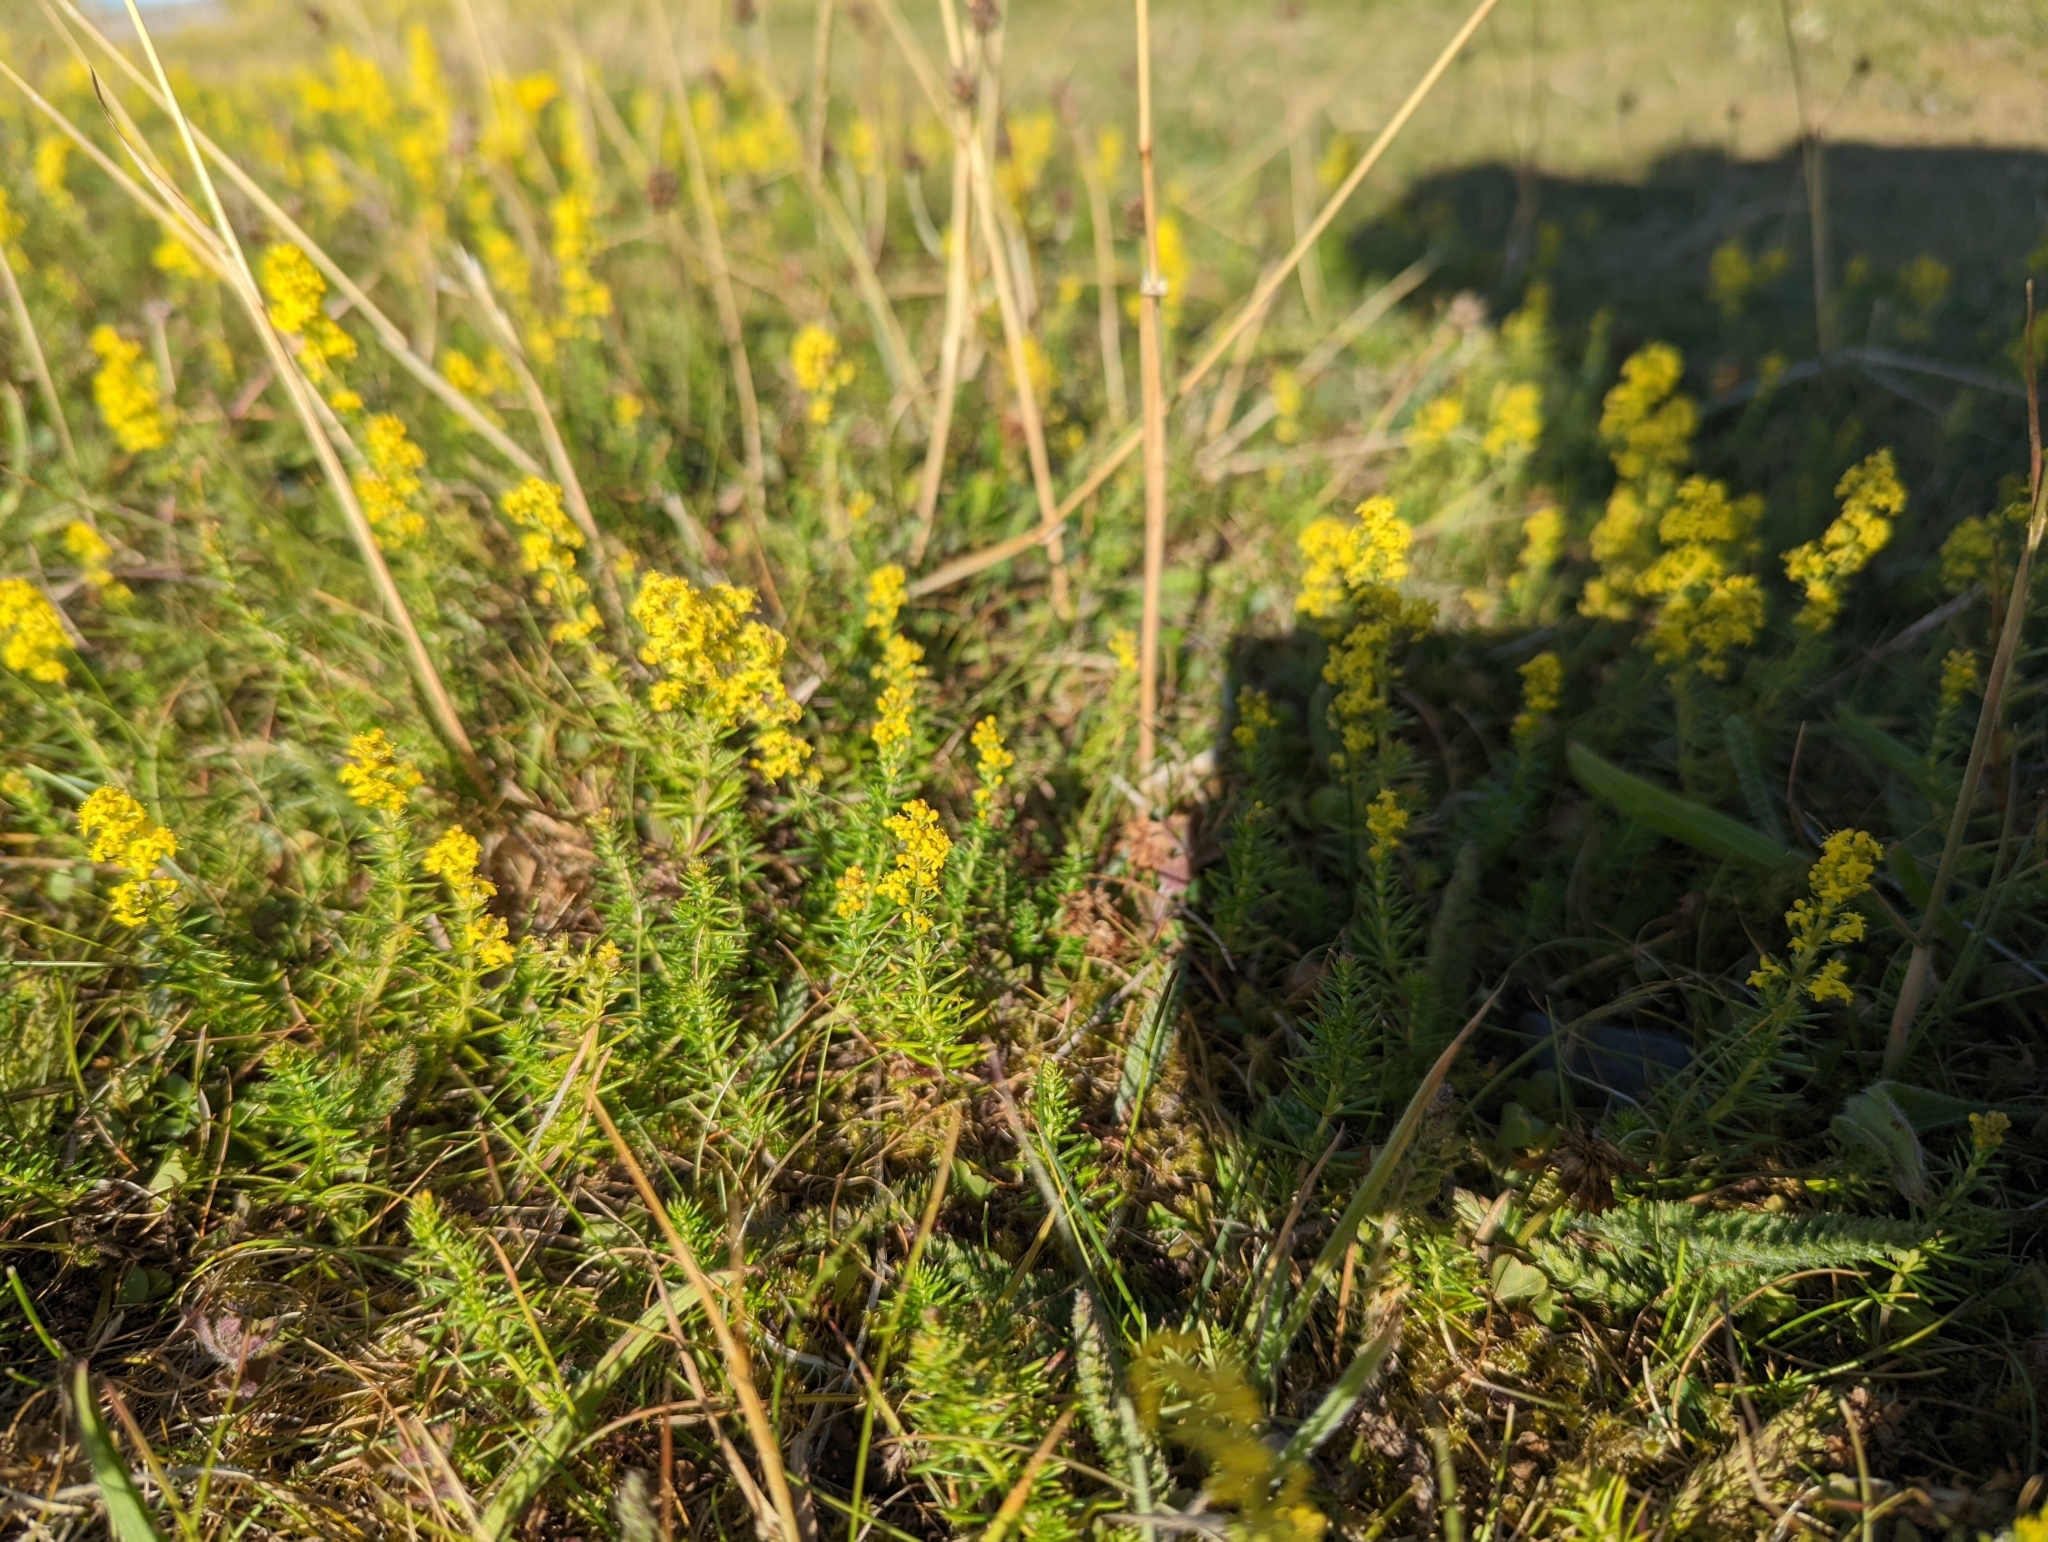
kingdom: Plantae
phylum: Tracheophyta
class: Magnoliopsida
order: Gentianales
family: Rubiaceae
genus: Galium
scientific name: Galium verum
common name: Lady's bedstraw
